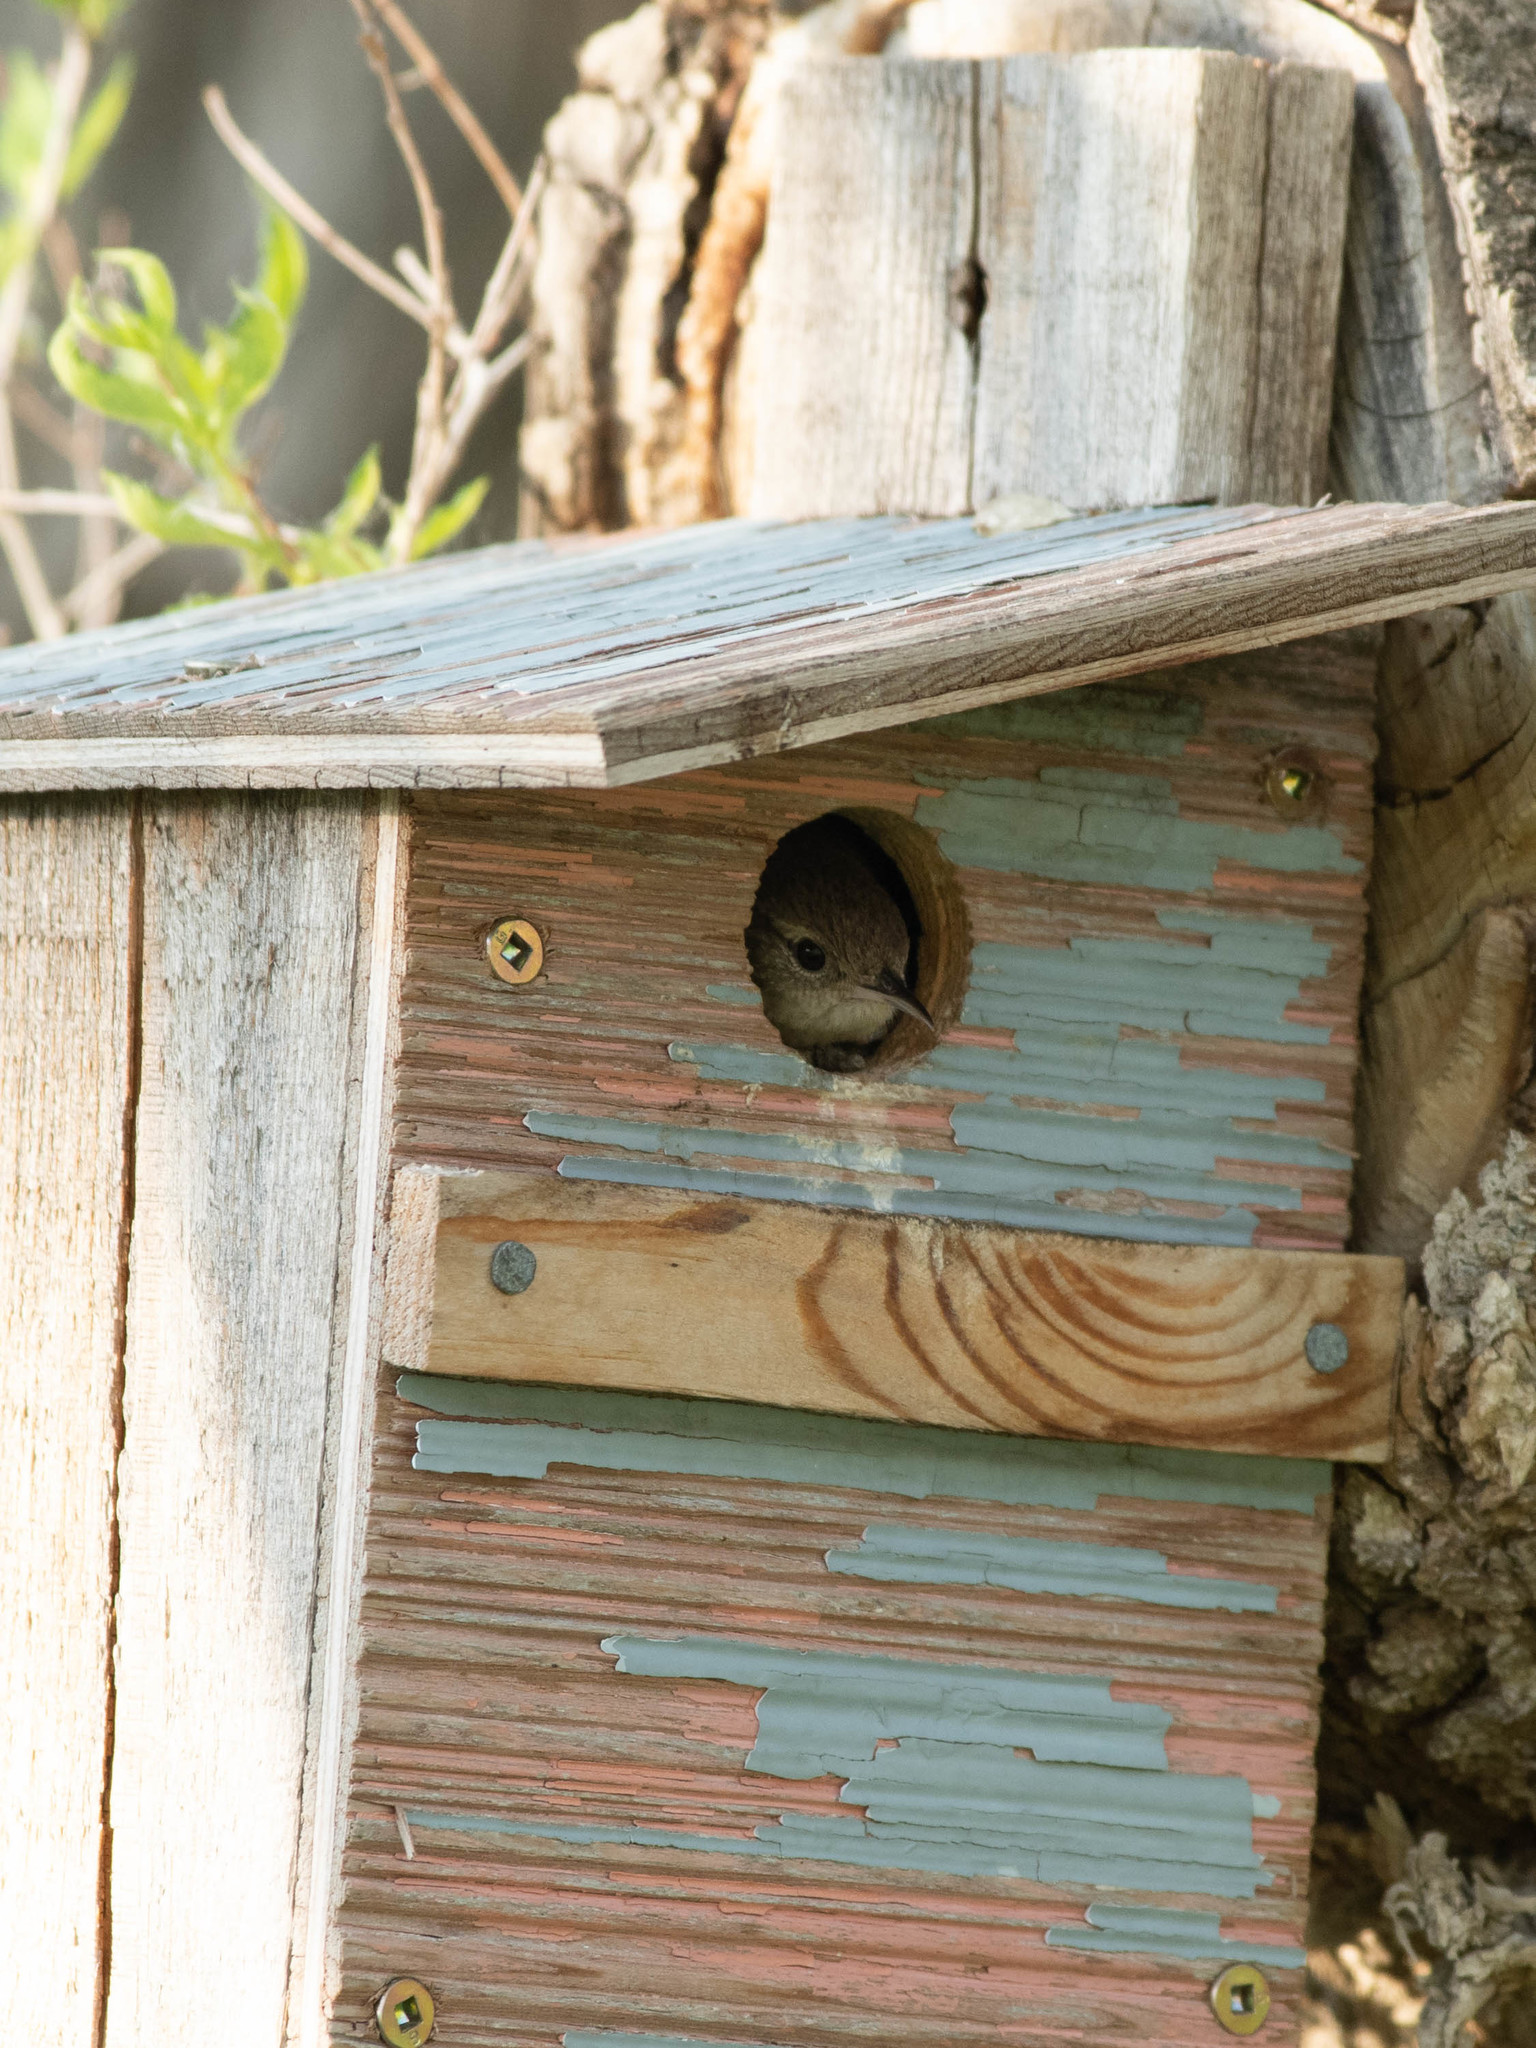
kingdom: Animalia
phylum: Chordata
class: Aves
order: Passeriformes
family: Troglodytidae
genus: Troglodytes
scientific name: Troglodytes aedon
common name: House wren
